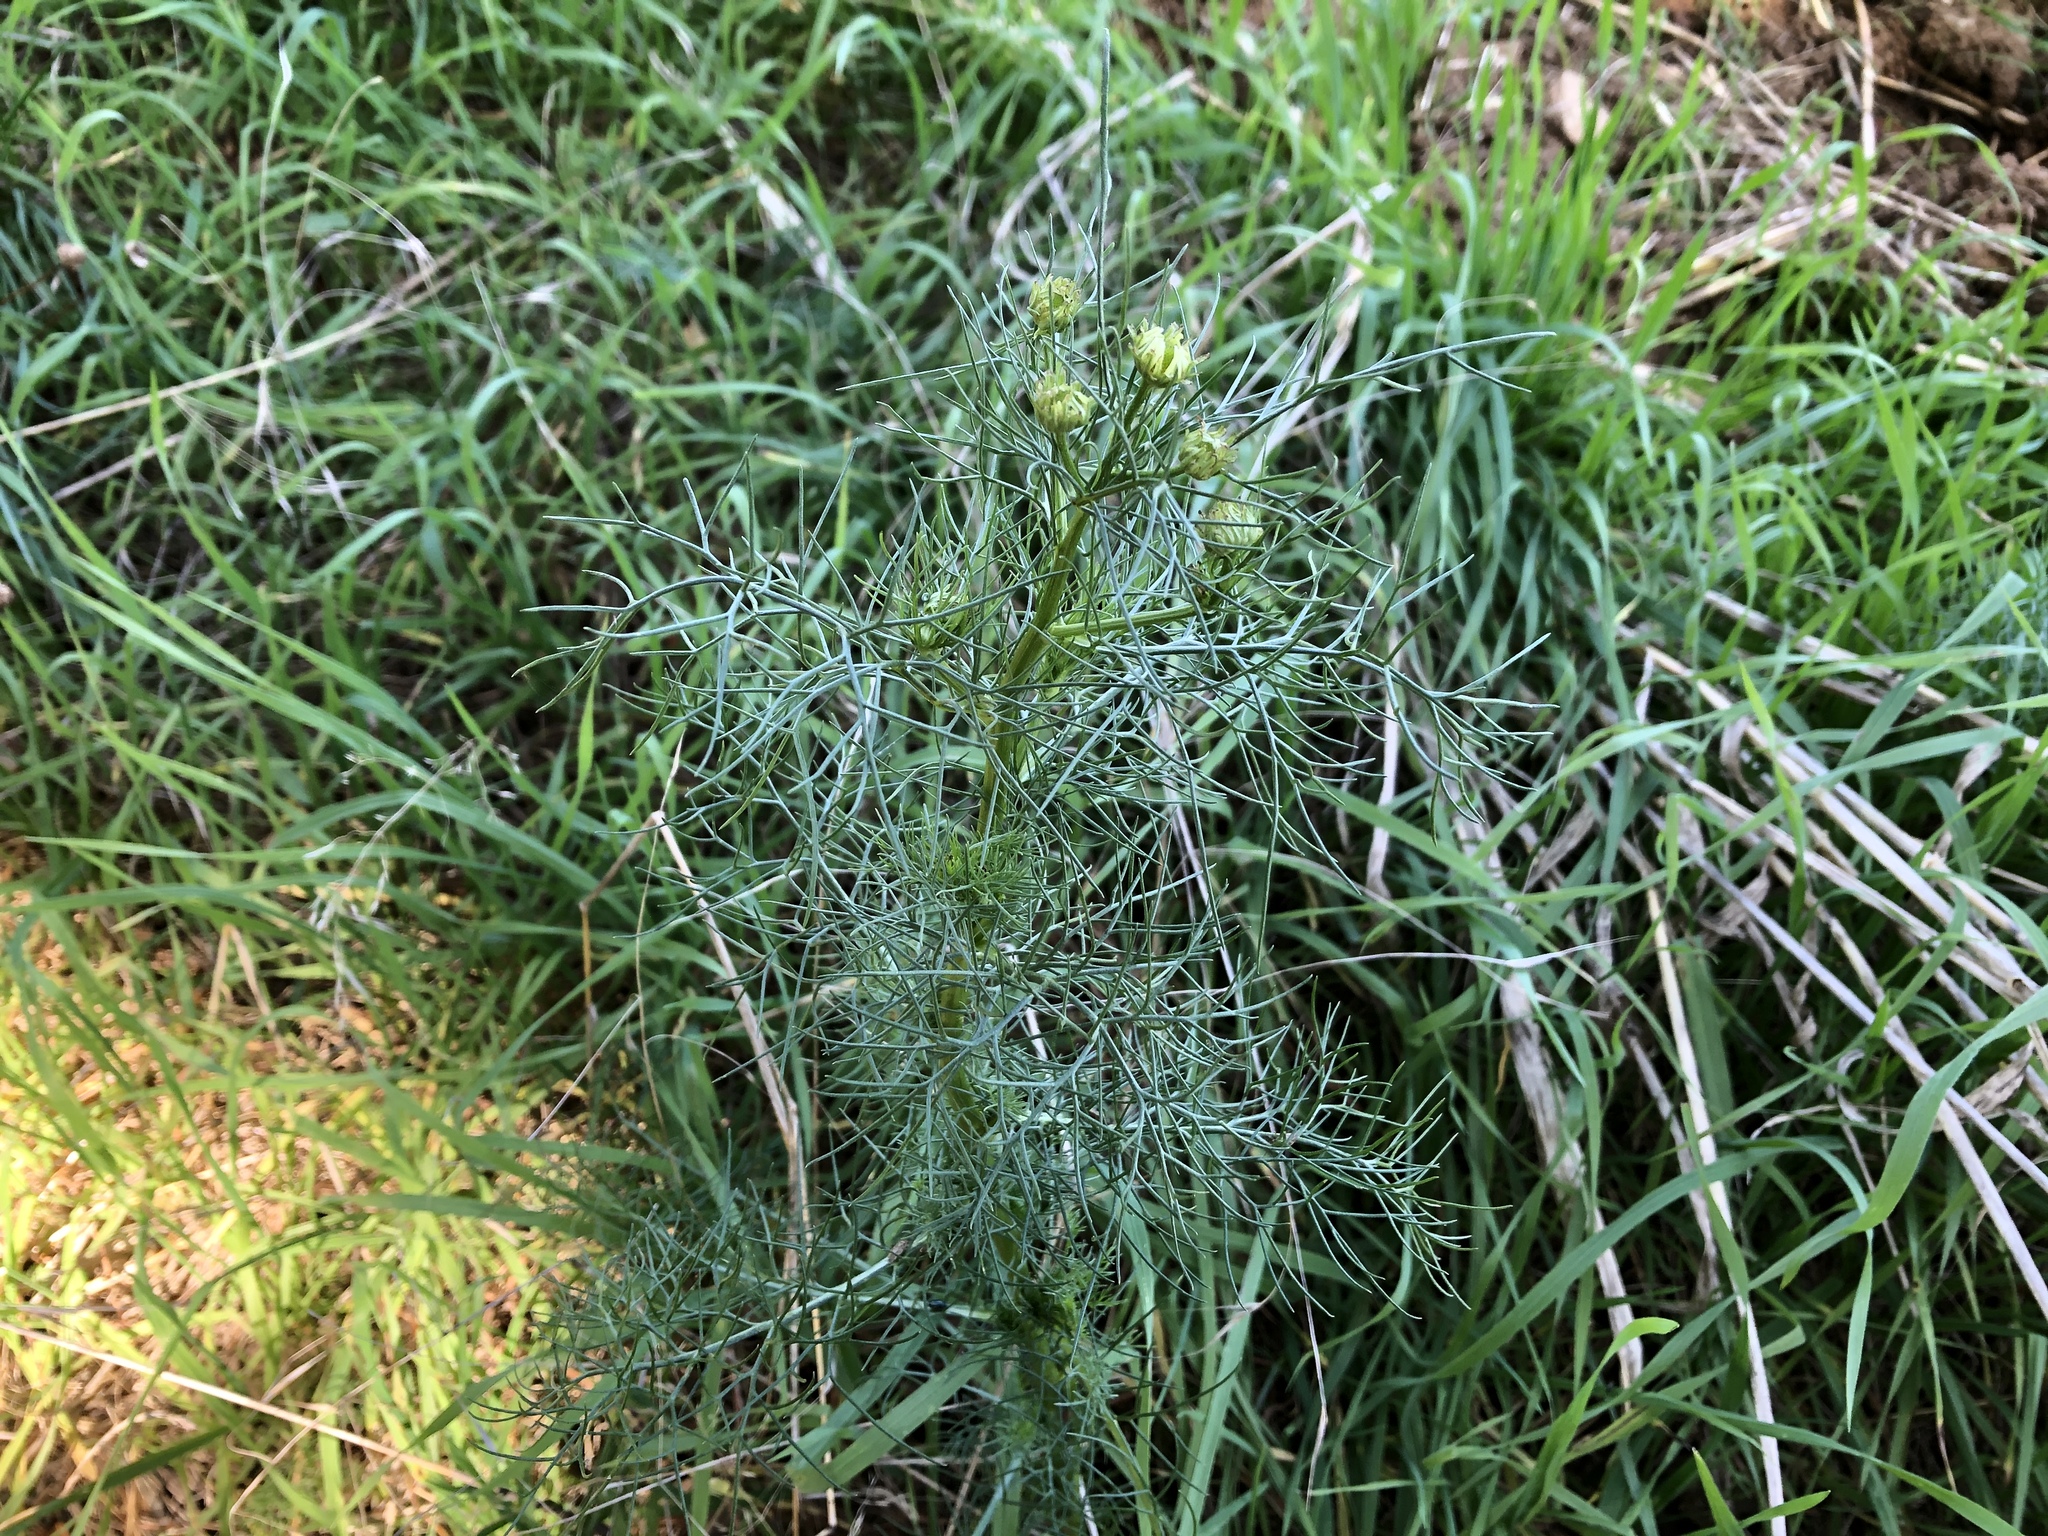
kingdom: Plantae
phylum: Tracheophyta
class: Magnoliopsida
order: Asterales
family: Asteraceae
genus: Tripleurospermum
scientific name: Tripleurospermum inodorum
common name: Scentless mayweed
